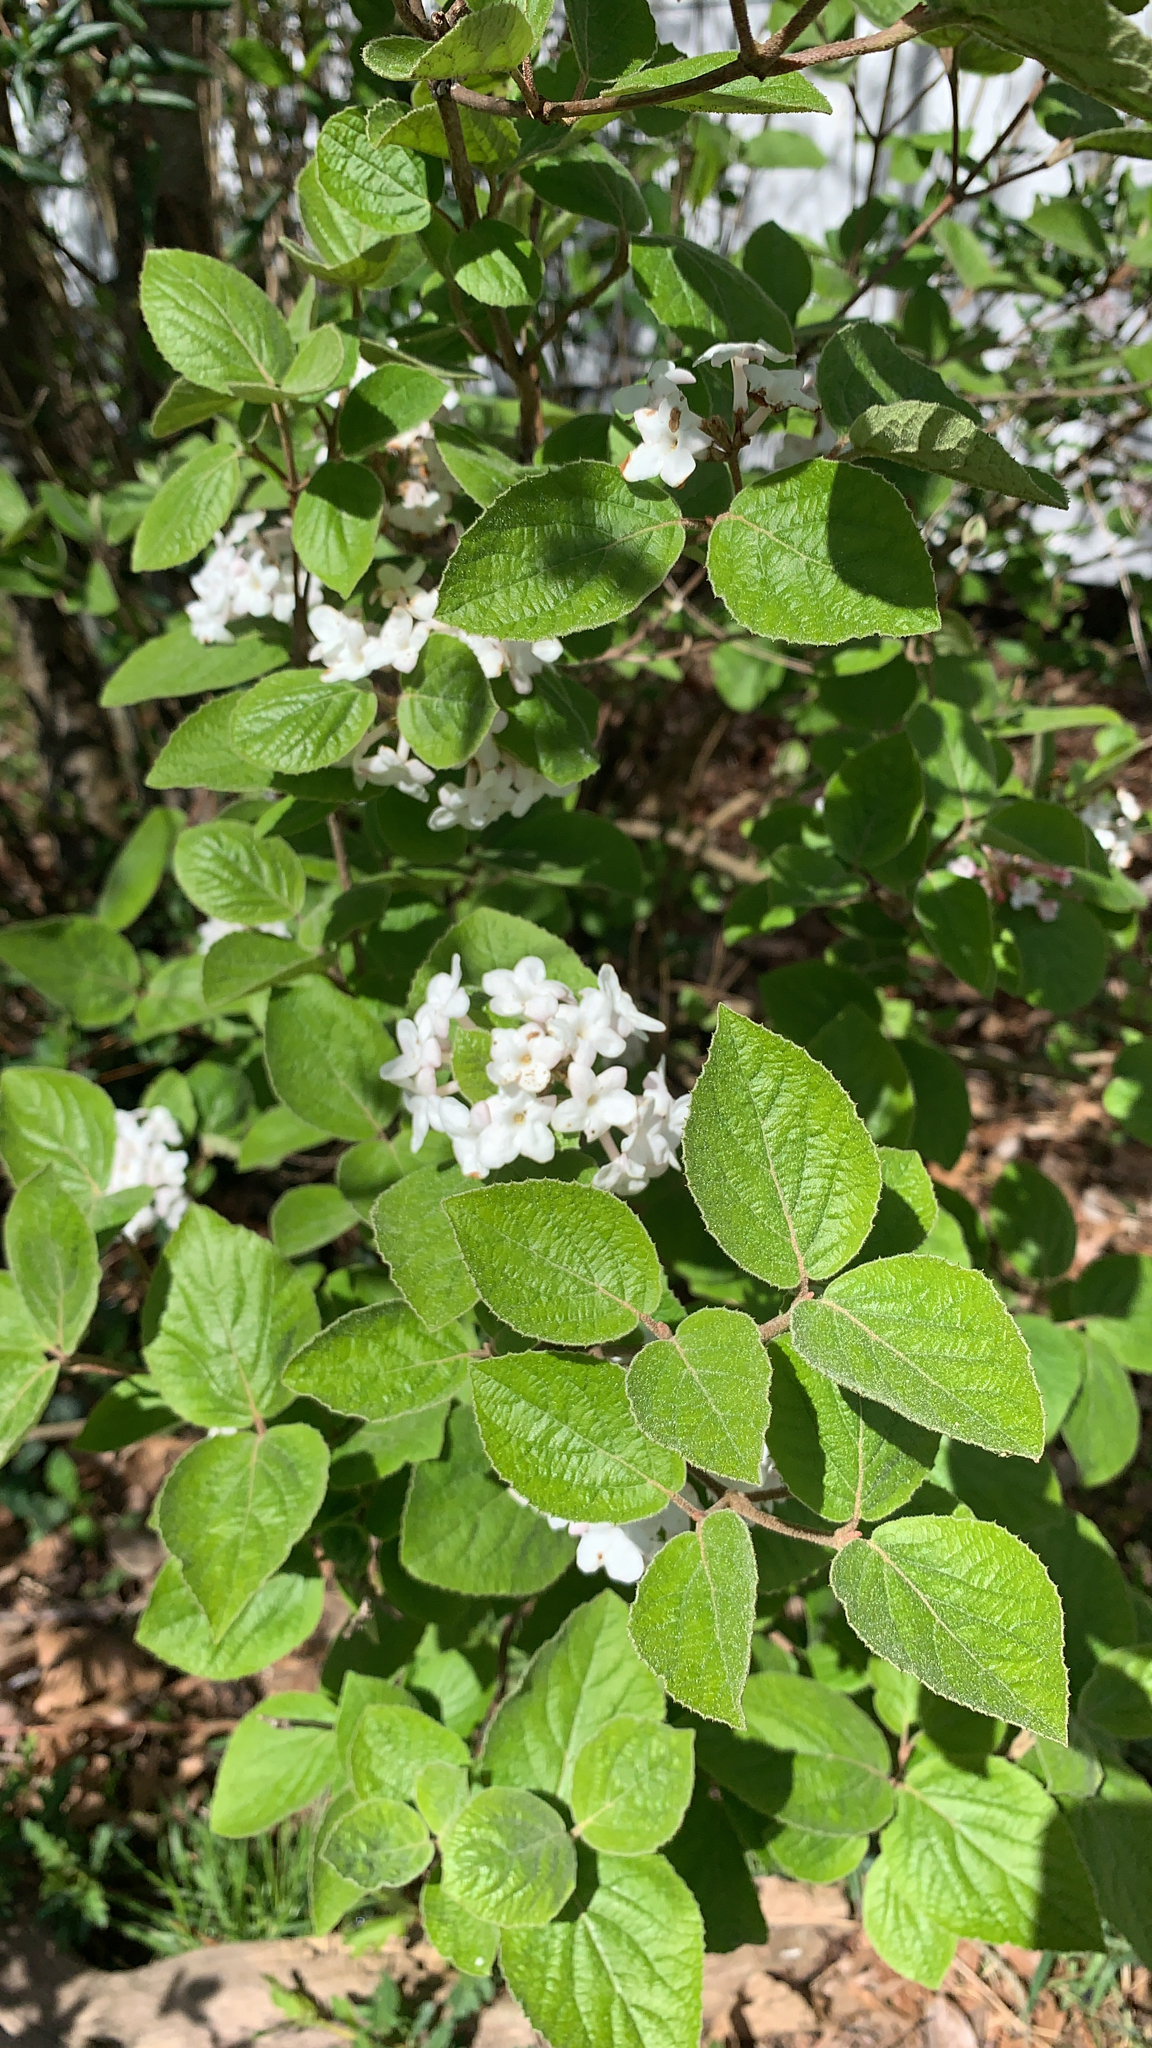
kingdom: Plantae
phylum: Tracheophyta
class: Magnoliopsida
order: Dipsacales
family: Viburnaceae
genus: Viburnum
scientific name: Viburnum carlesii
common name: Koreanspice viburnum
